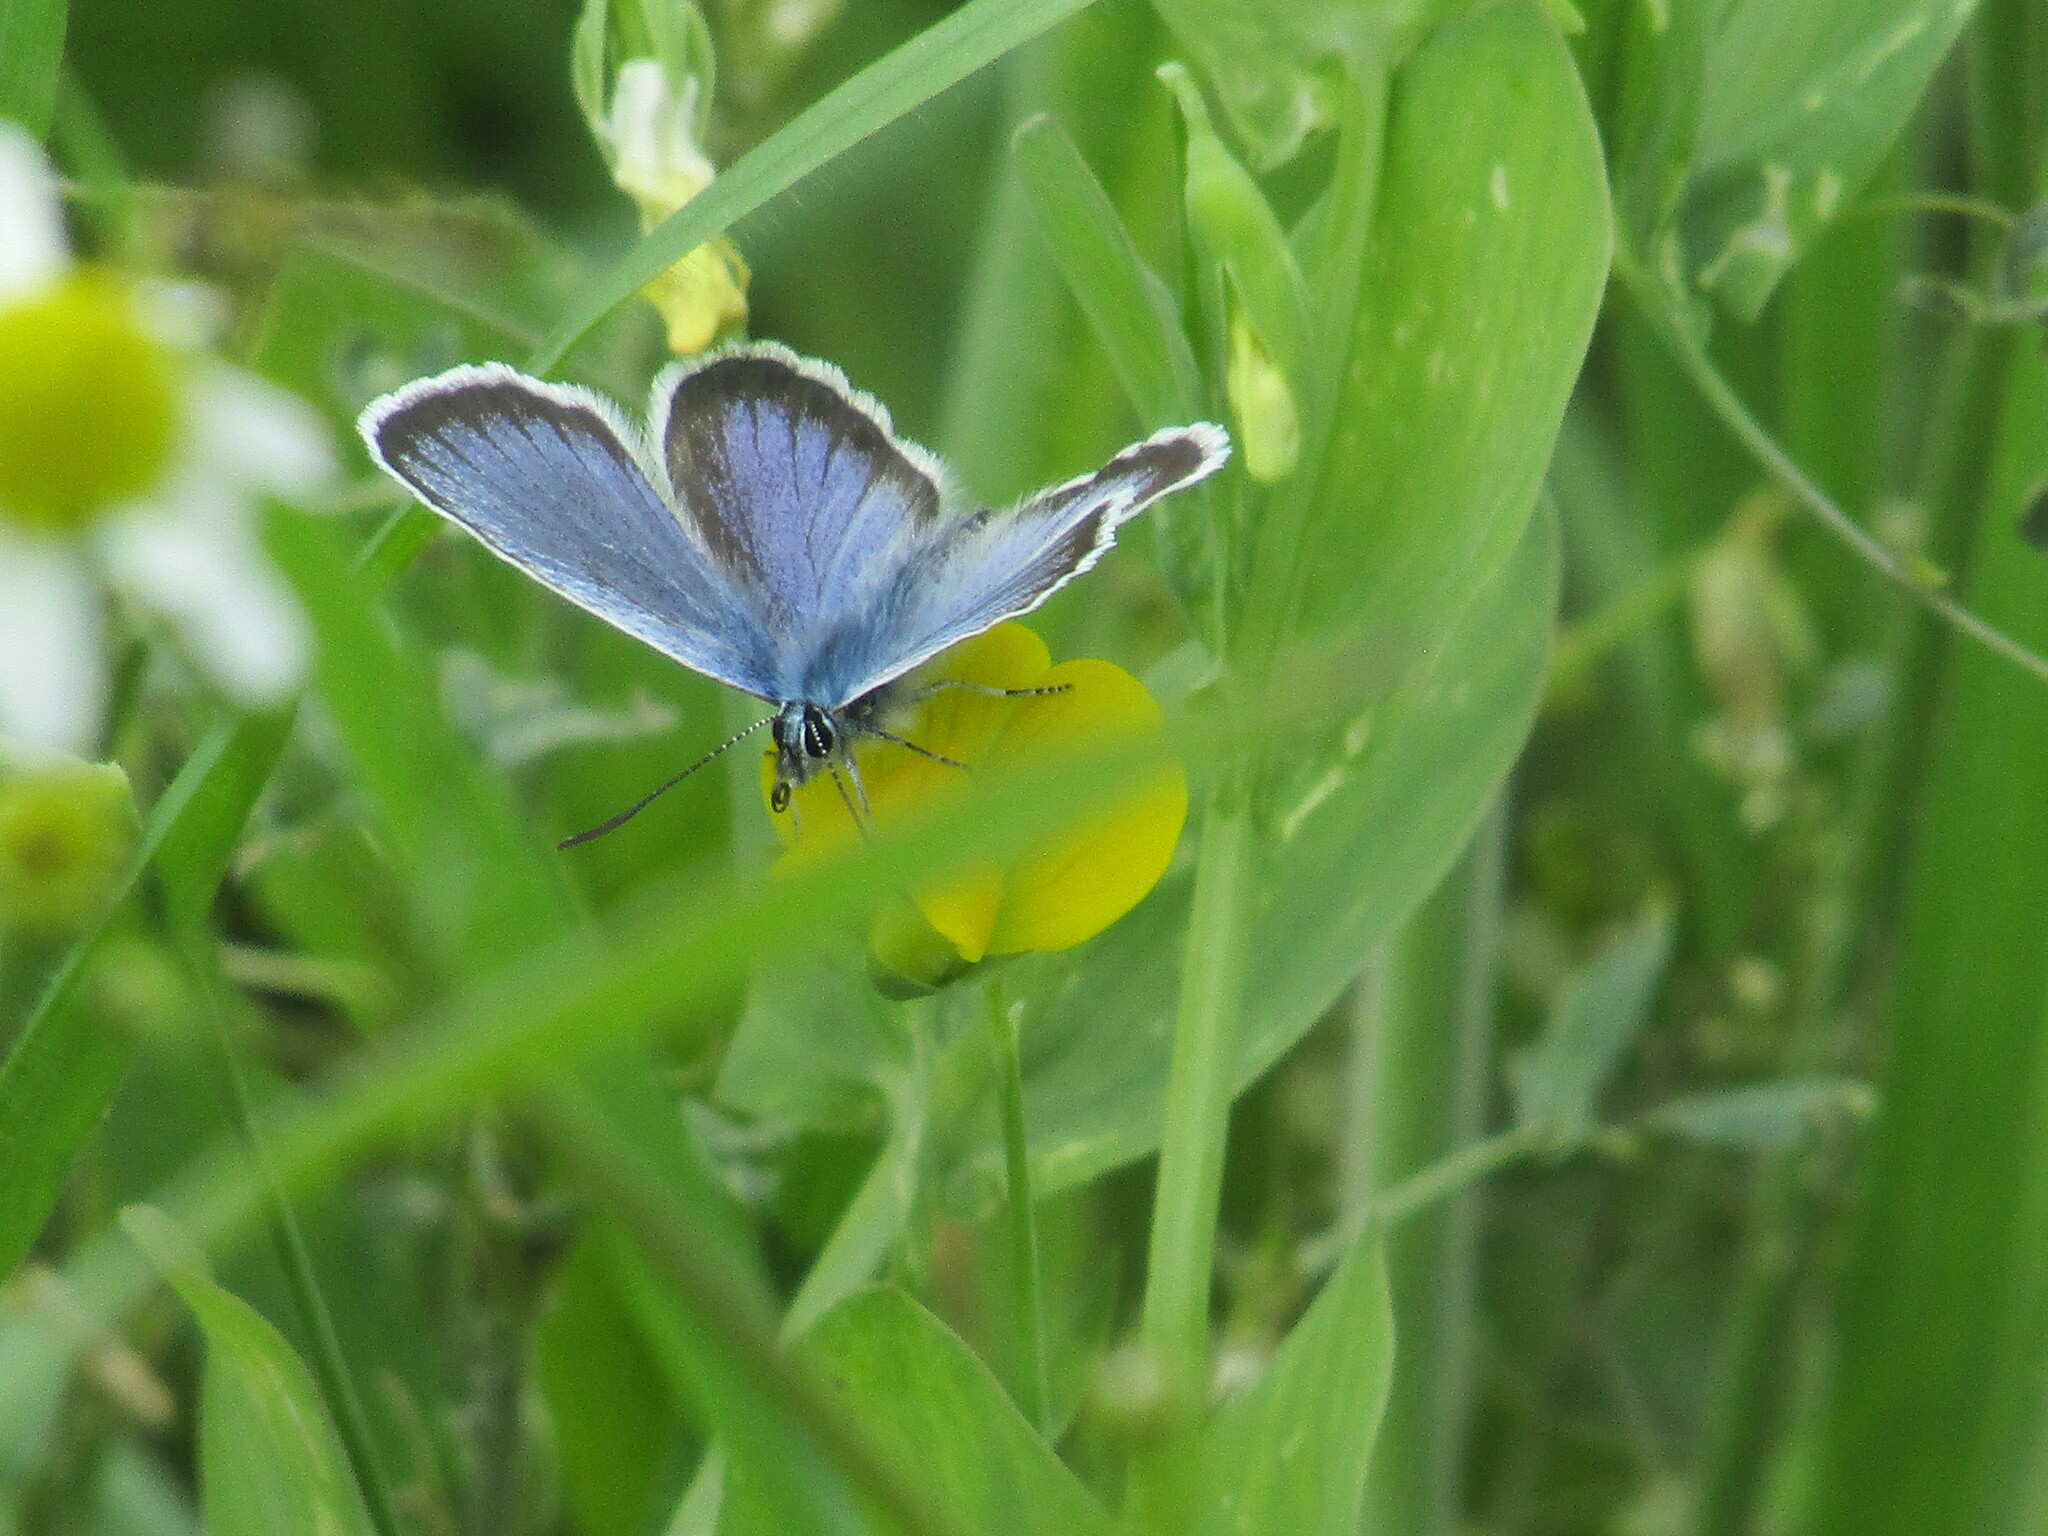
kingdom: Animalia
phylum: Arthropoda
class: Insecta
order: Lepidoptera
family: Lycaenidae
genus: Plebejus
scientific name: Plebejus argus
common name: Silver-studded blue
